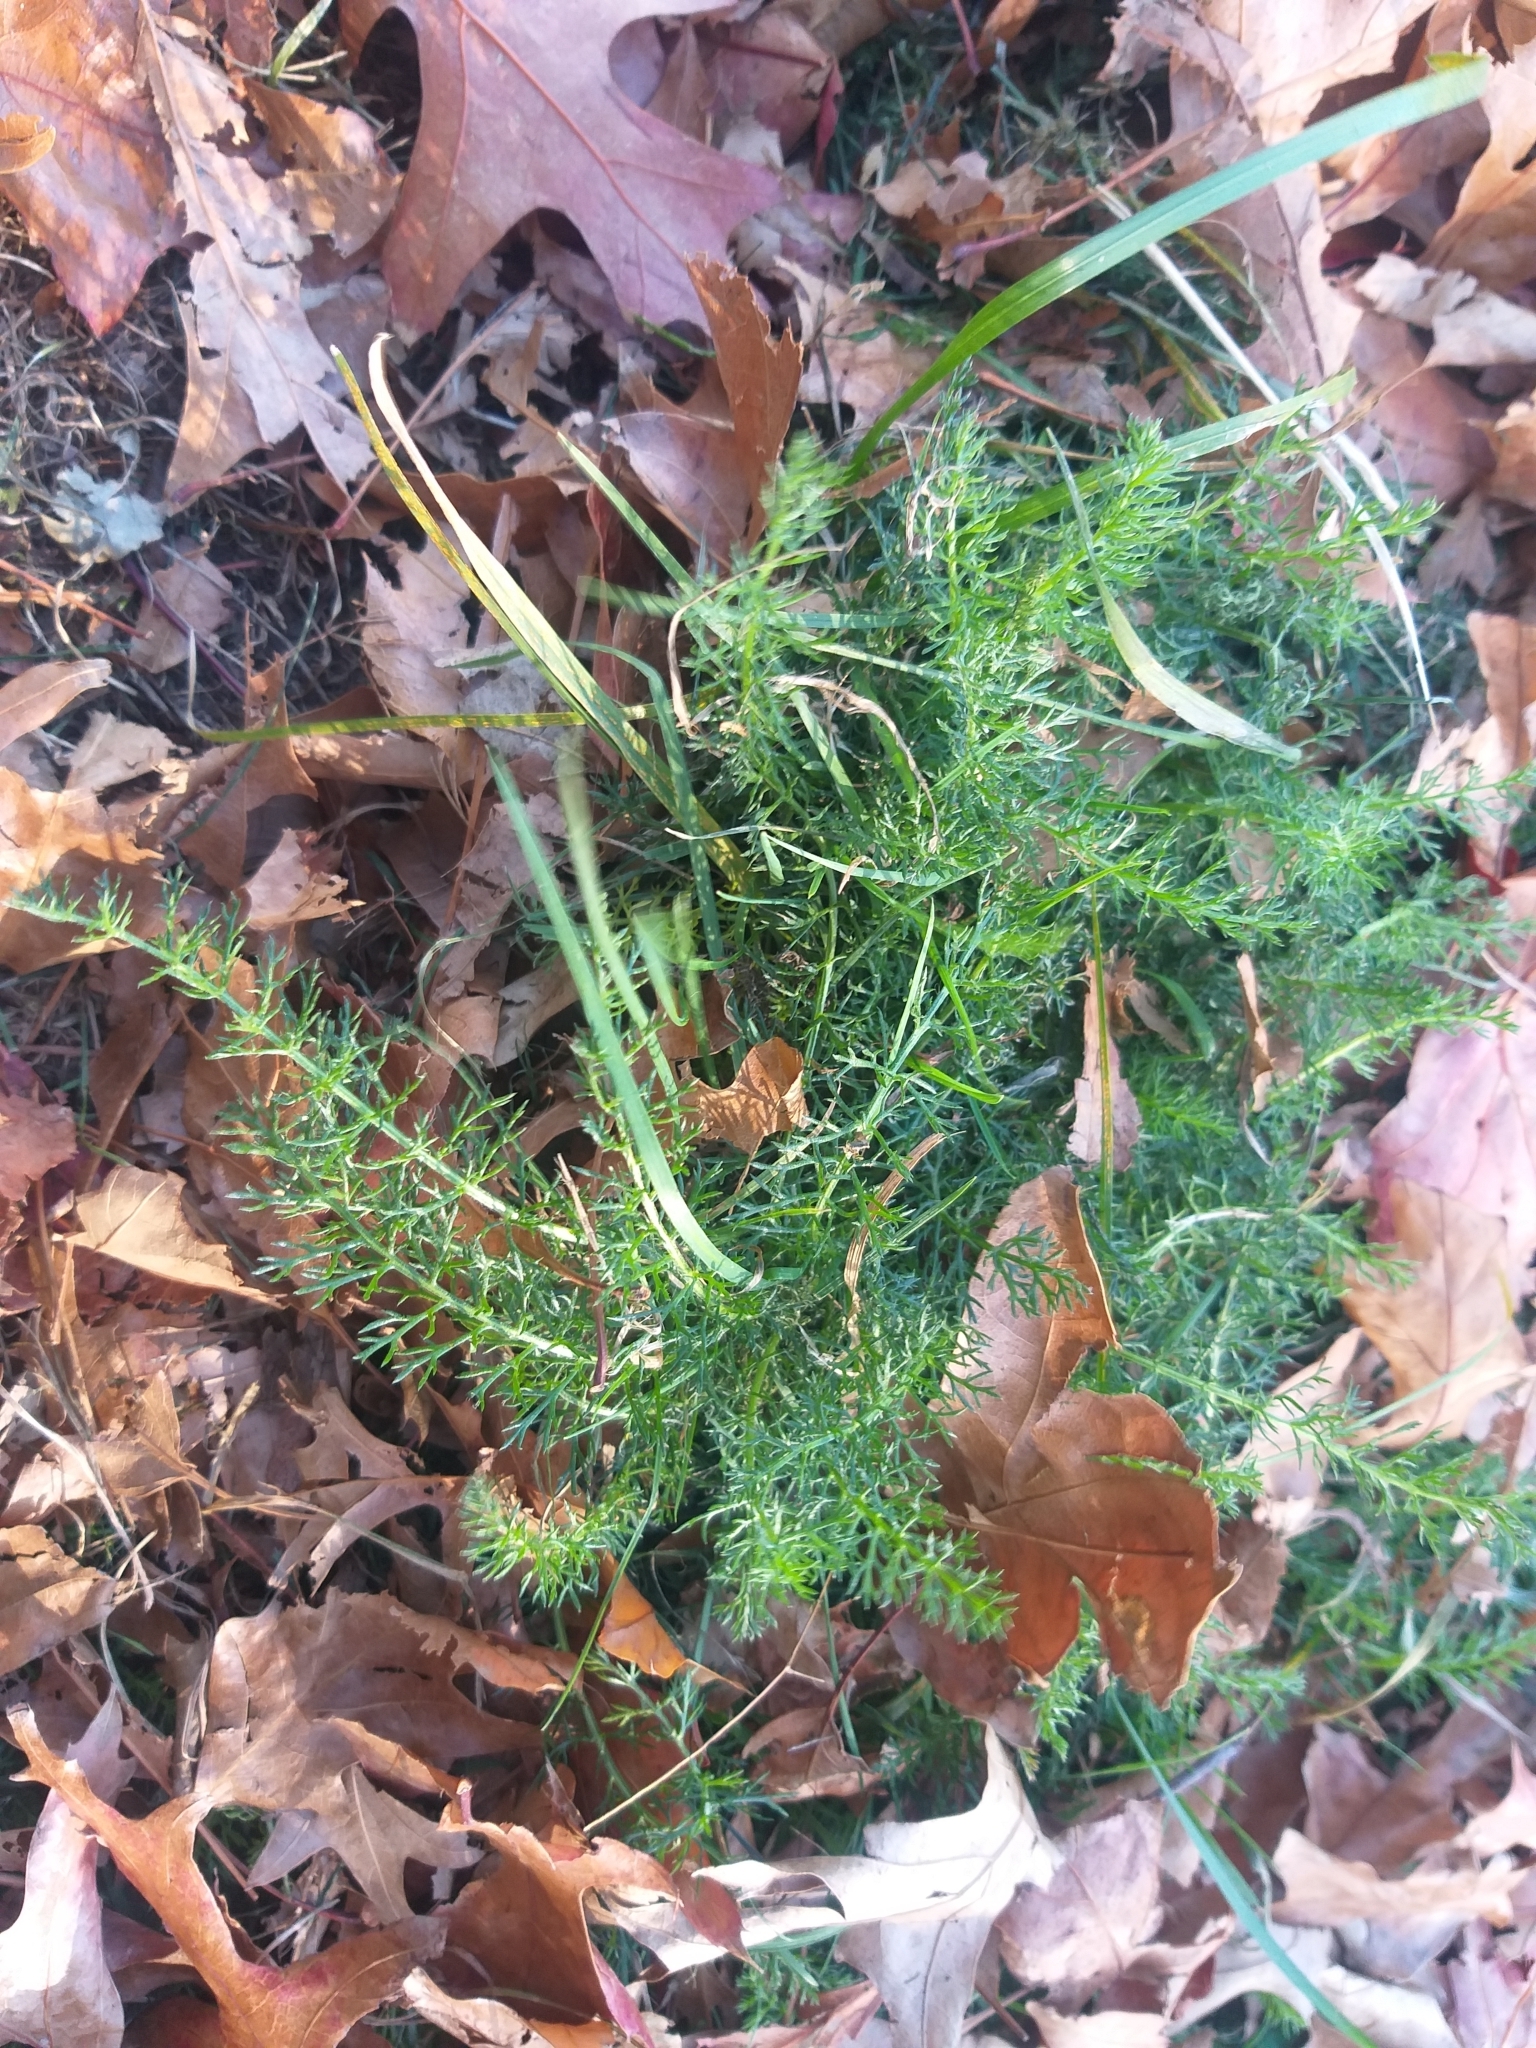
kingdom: Plantae
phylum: Tracheophyta
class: Magnoliopsida
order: Asterales
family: Asteraceae
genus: Achillea
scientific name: Achillea millefolium
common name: Yarrow
